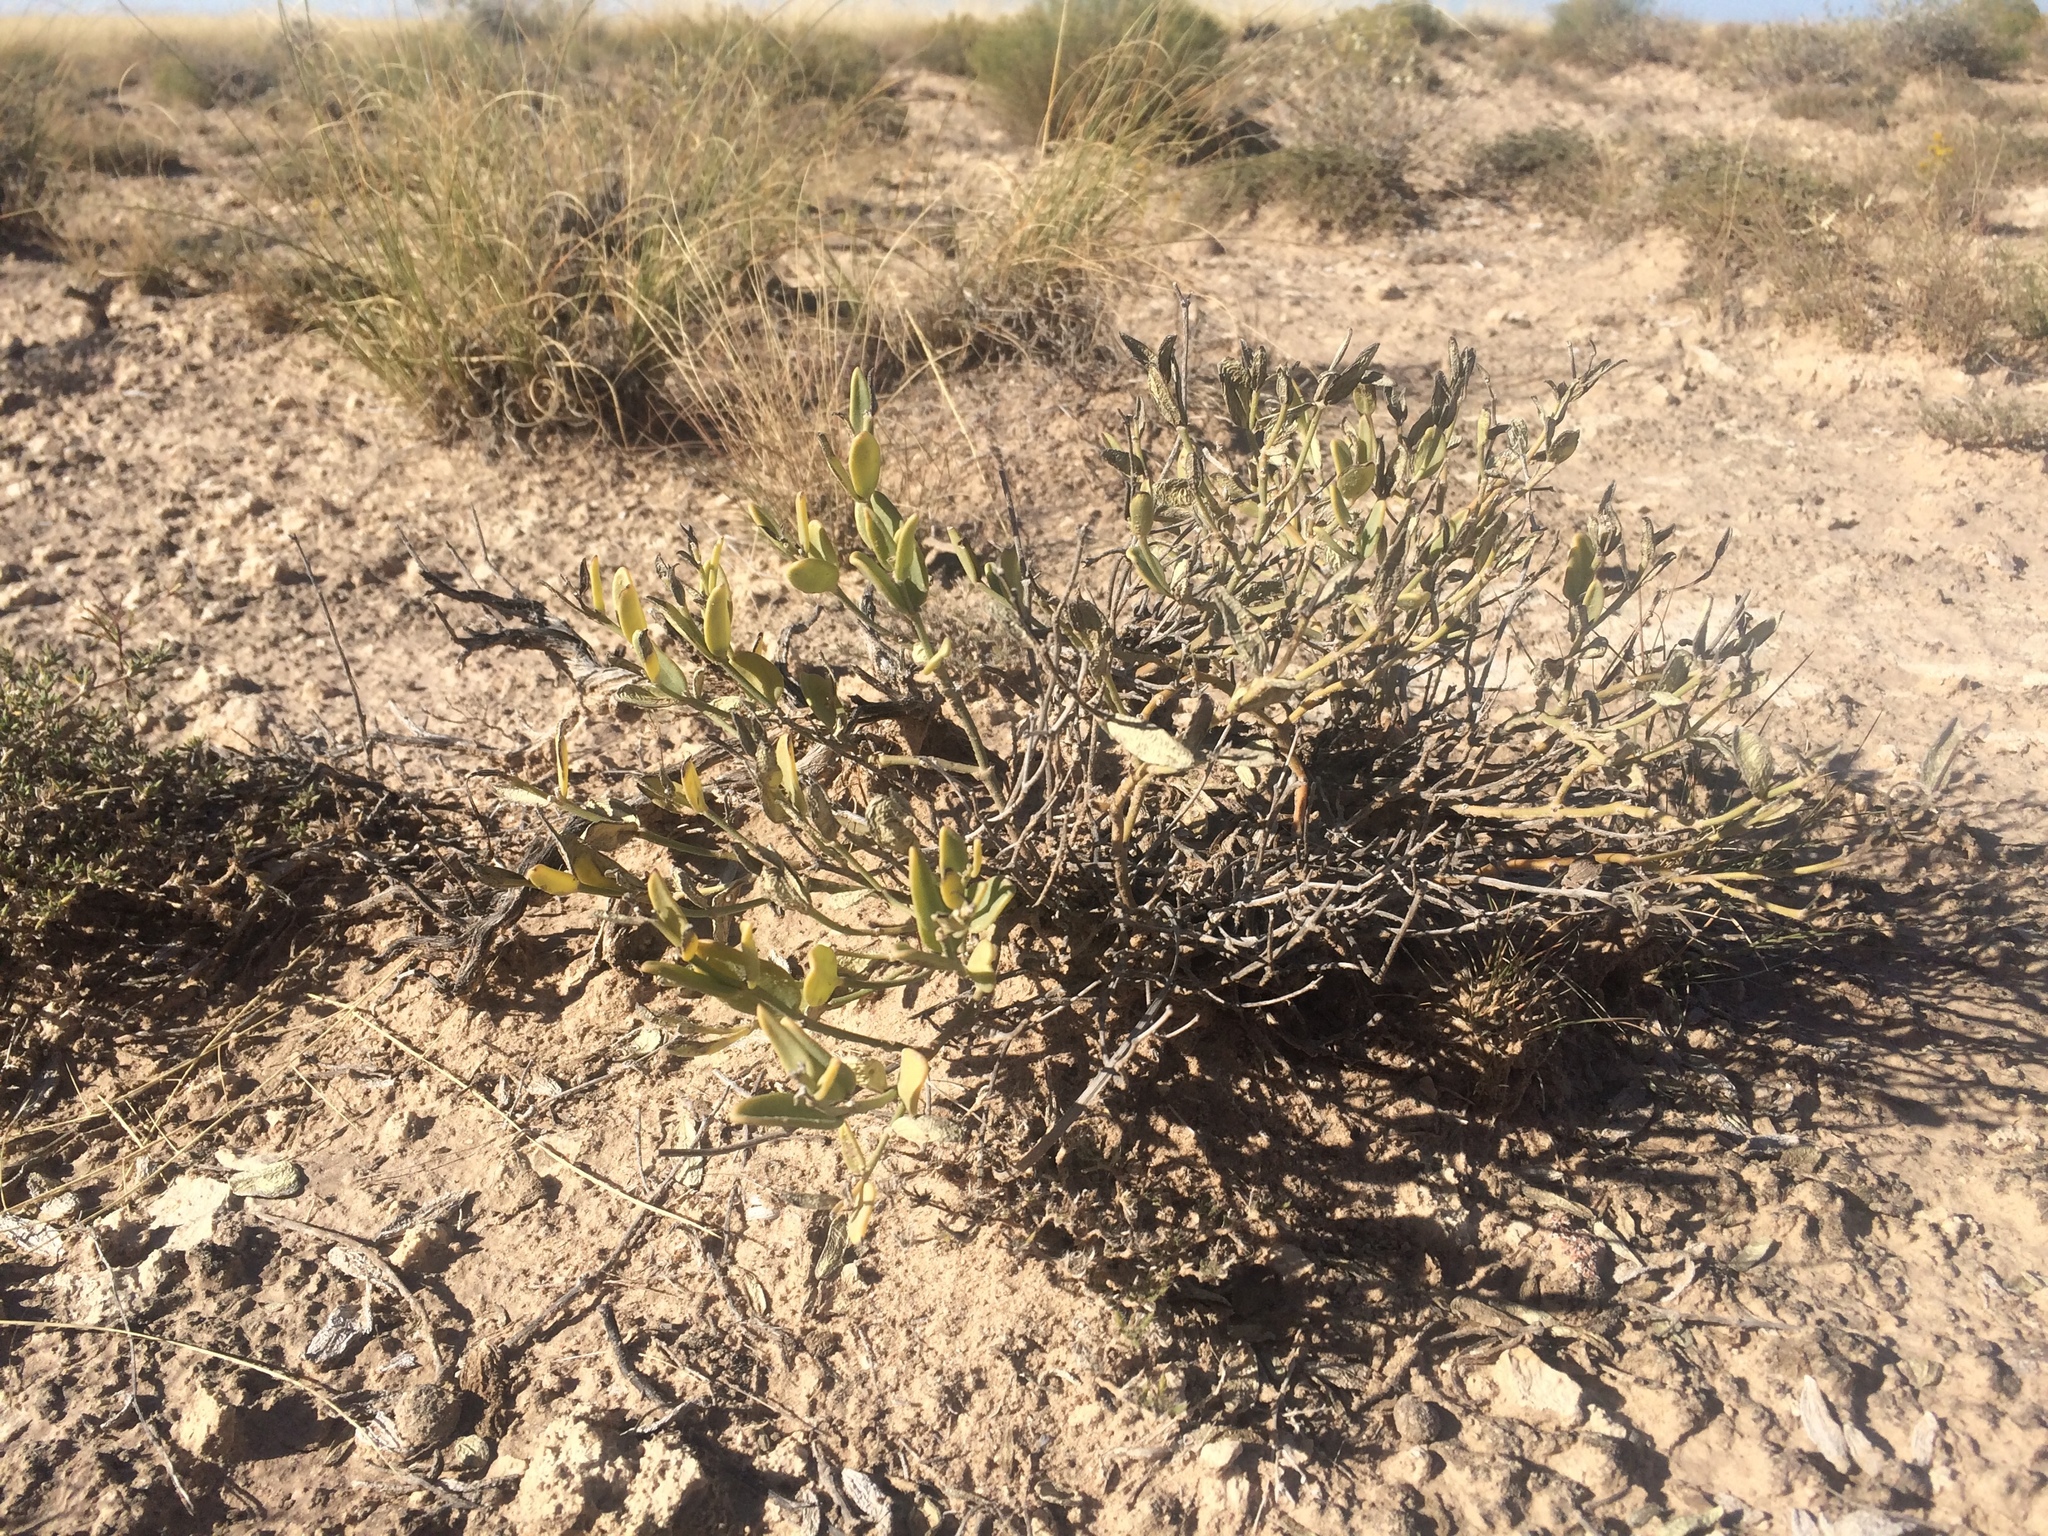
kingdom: Plantae
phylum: Tracheophyta
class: Magnoliopsida
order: Caryophyllales
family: Nyctaginaceae
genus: Acleisanthes
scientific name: Acleisanthes lanceolata
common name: Gypsum moonpod
